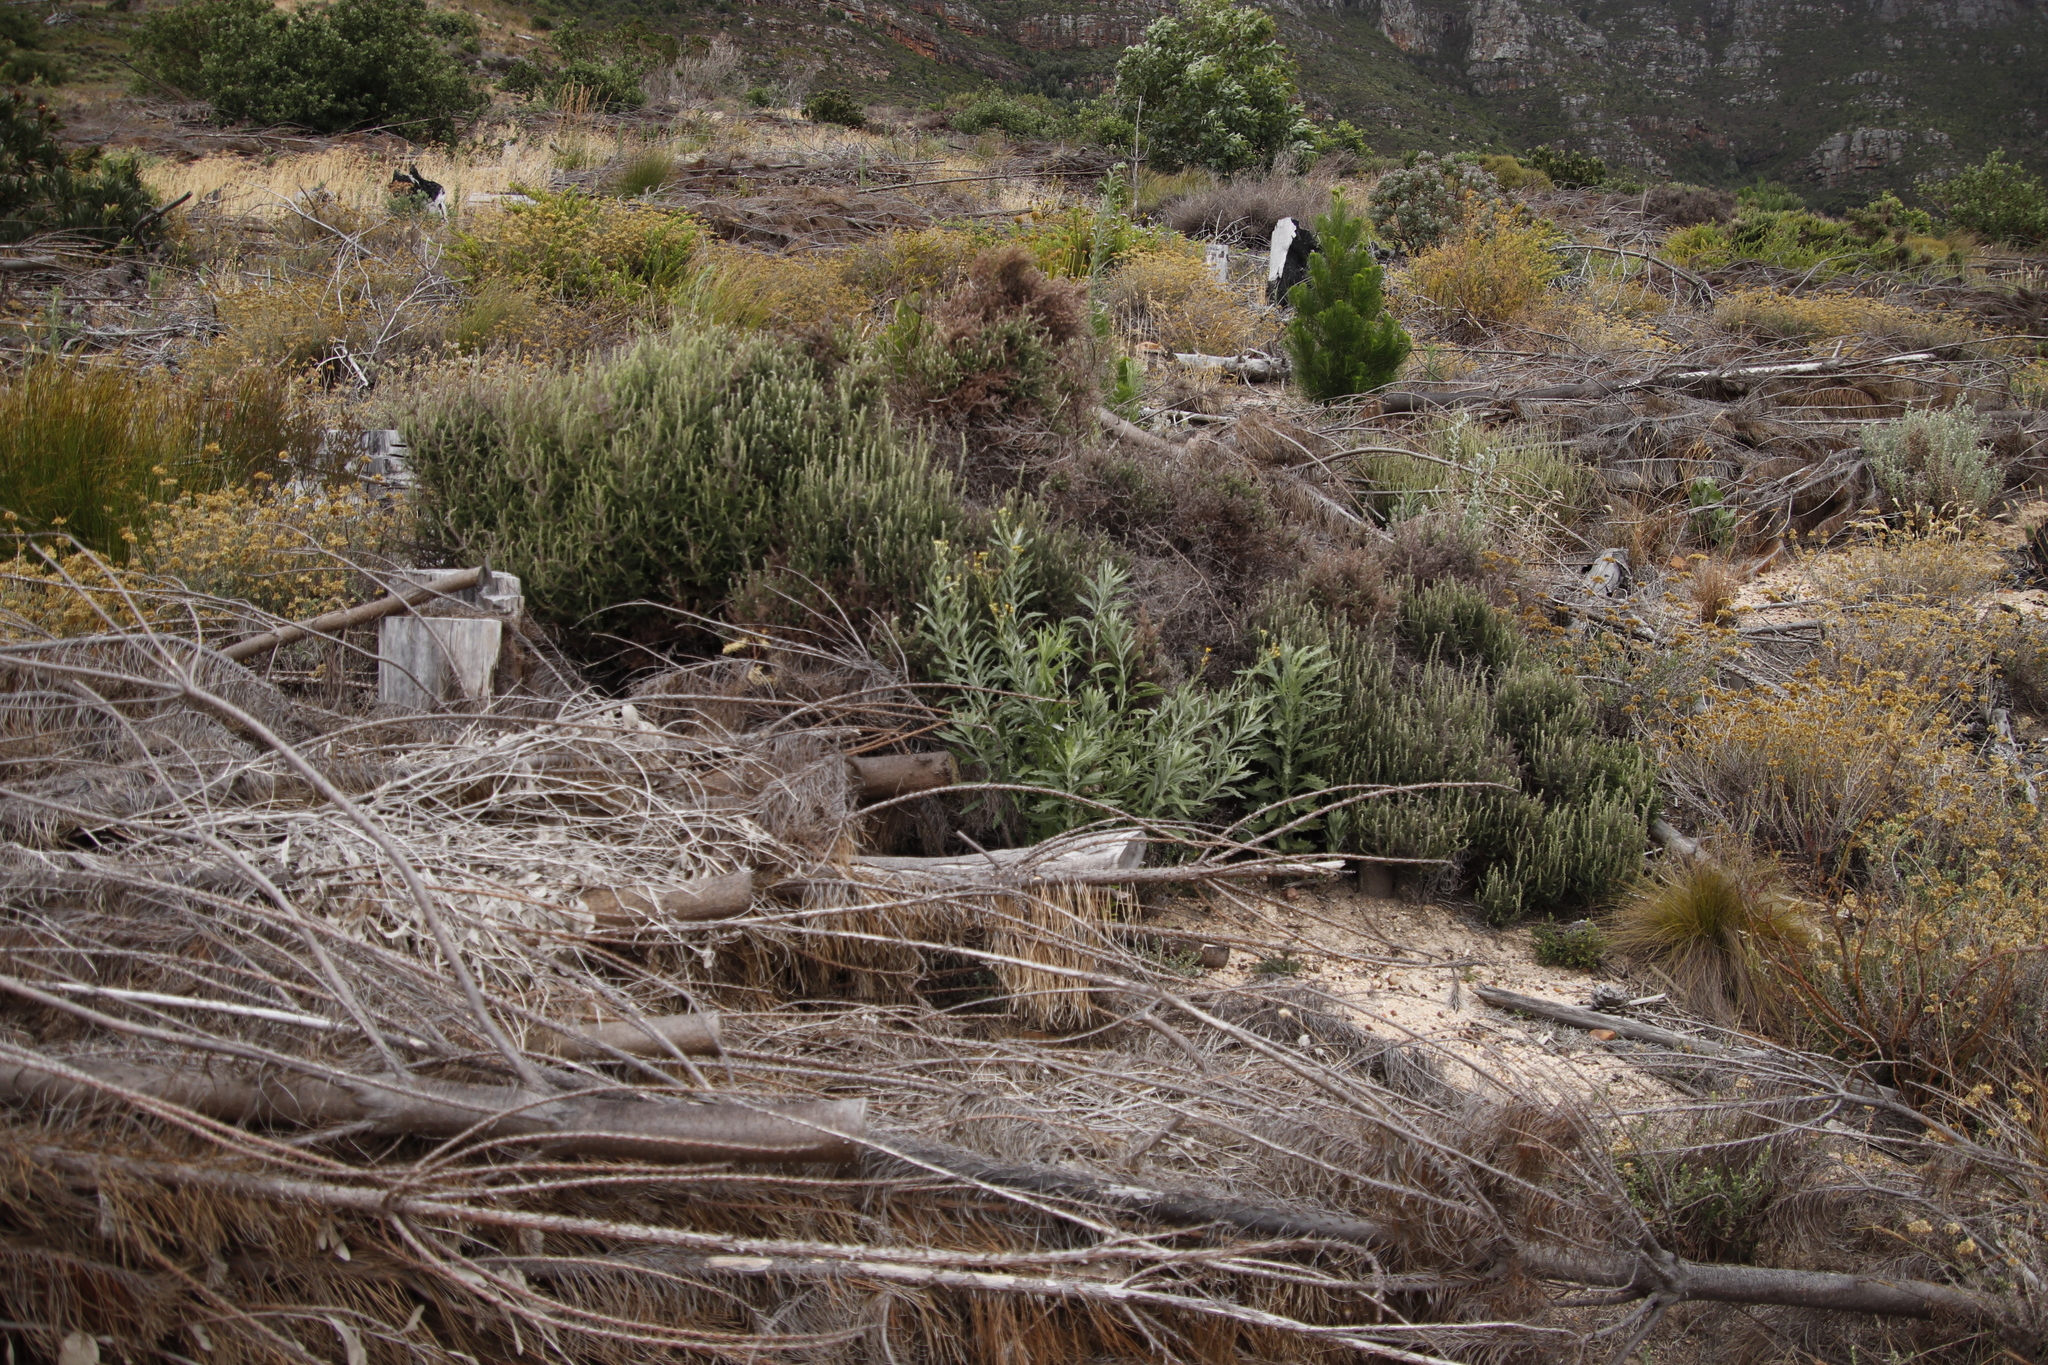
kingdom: Plantae
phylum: Tracheophyta
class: Magnoliopsida
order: Asterales
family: Asteraceae
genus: Senecio
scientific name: Senecio pterophorus
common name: Shoddy ragwort
